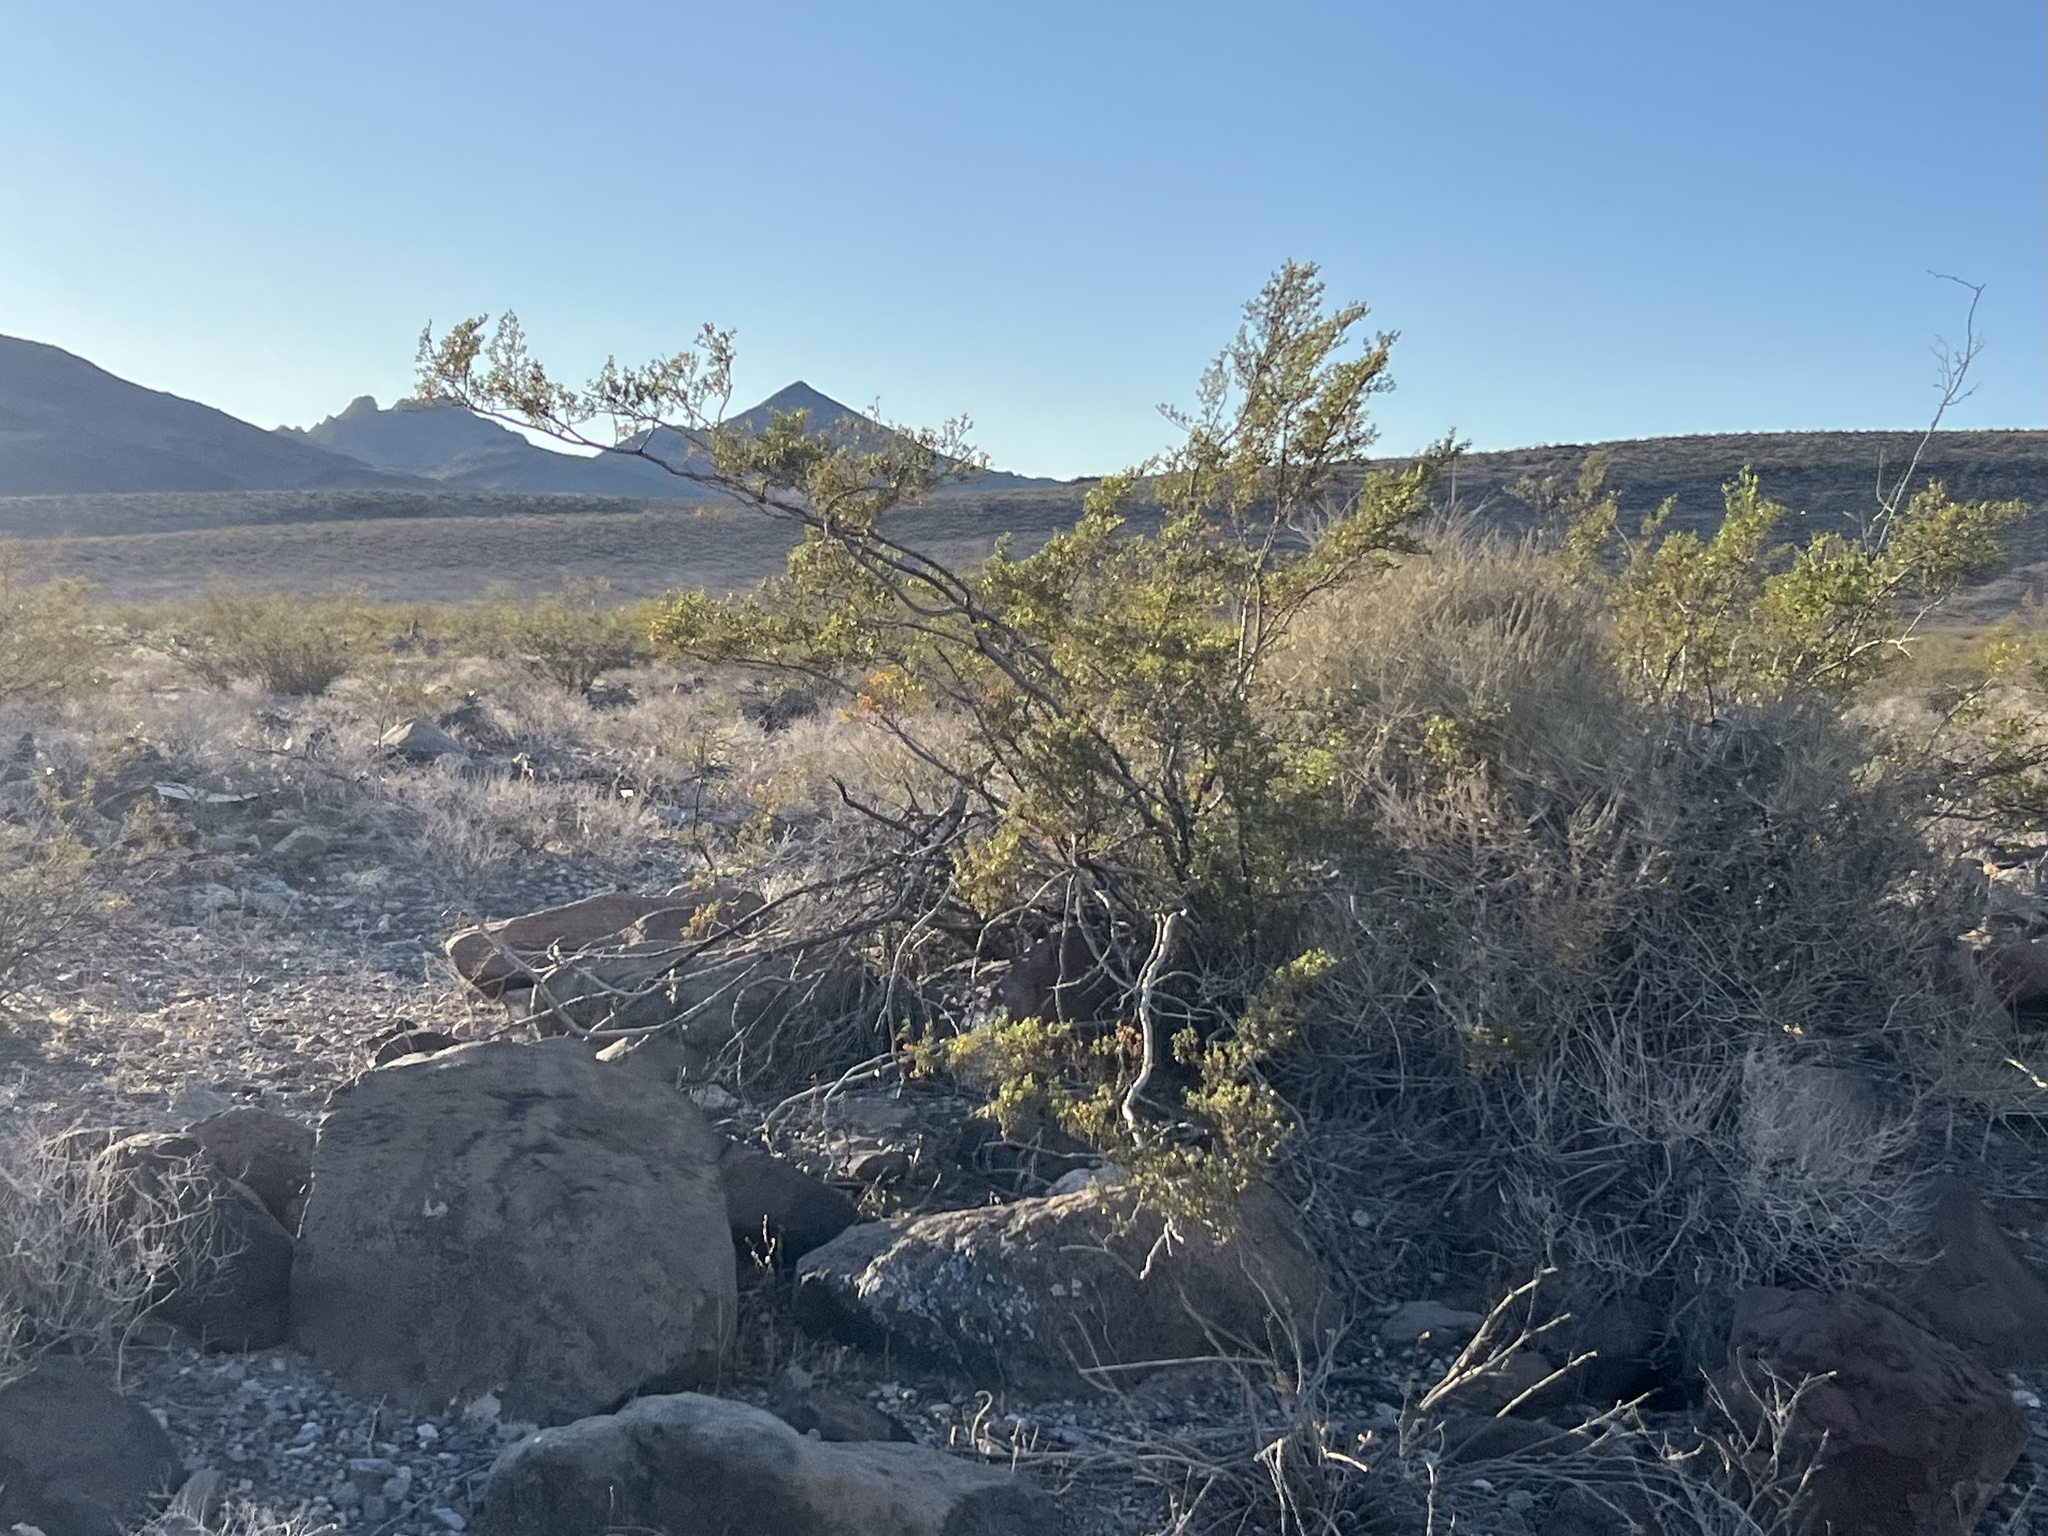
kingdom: Plantae
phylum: Tracheophyta
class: Magnoliopsida
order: Zygophyllales
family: Zygophyllaceae
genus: Larrea
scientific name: Larrea tridentata
